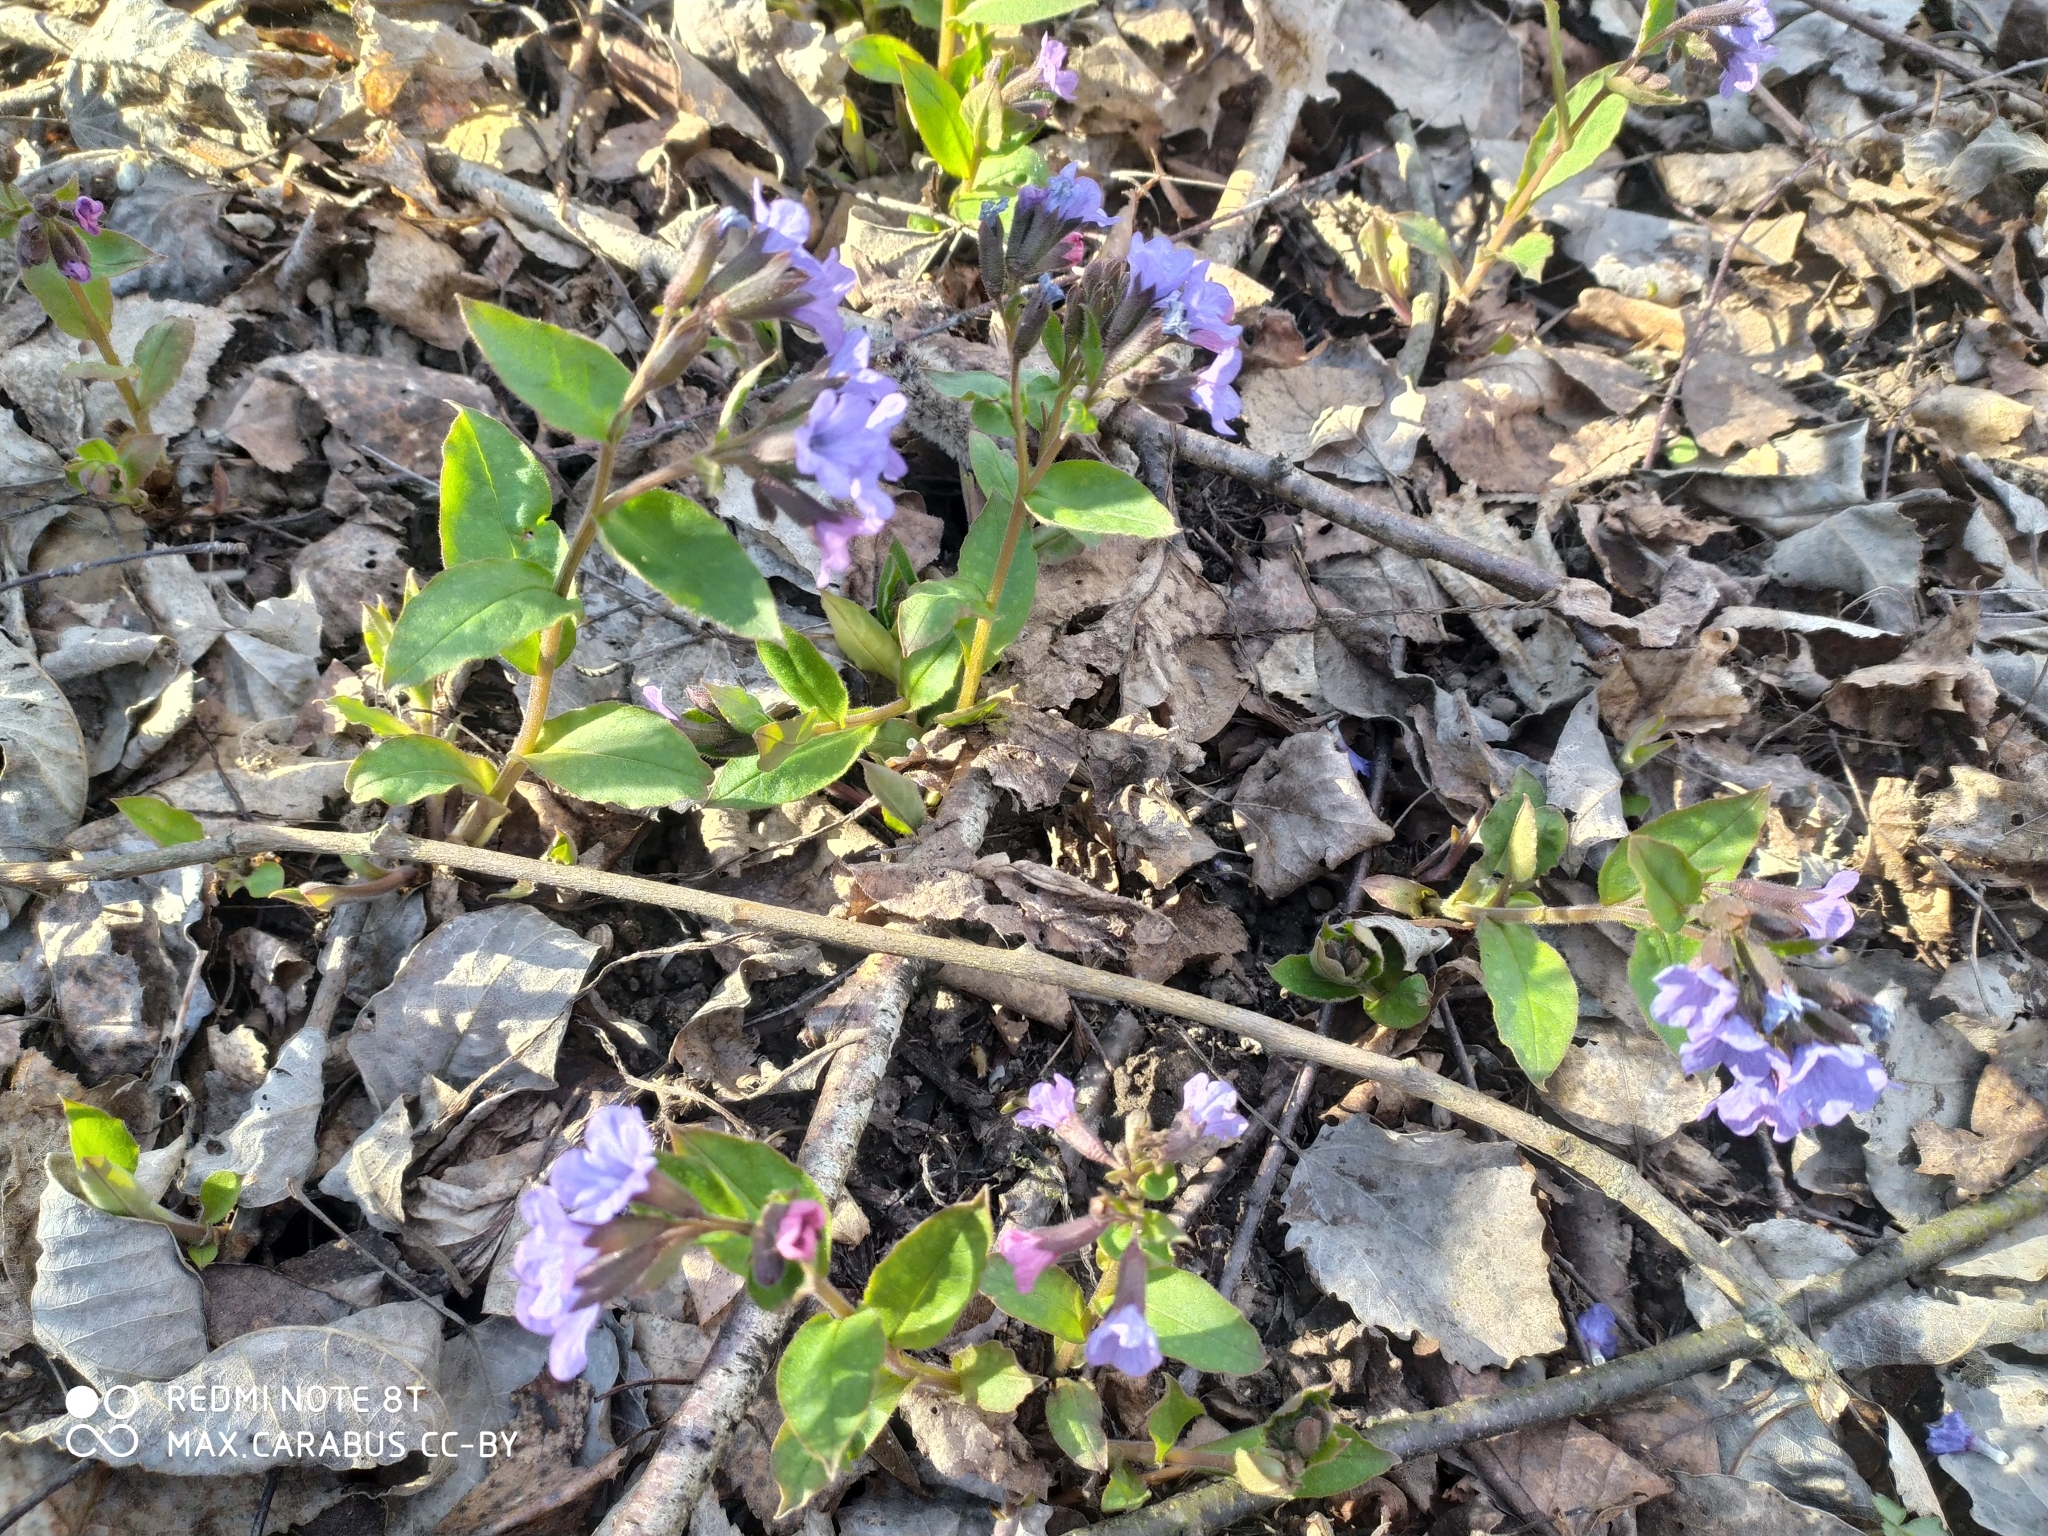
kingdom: Plantae
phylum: Tracheophyta
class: Magnoliopsida
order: Boraginales
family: Boraginaceae
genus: Pulmonaria
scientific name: Pulmonaria obscura
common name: Suffolk lungwort
